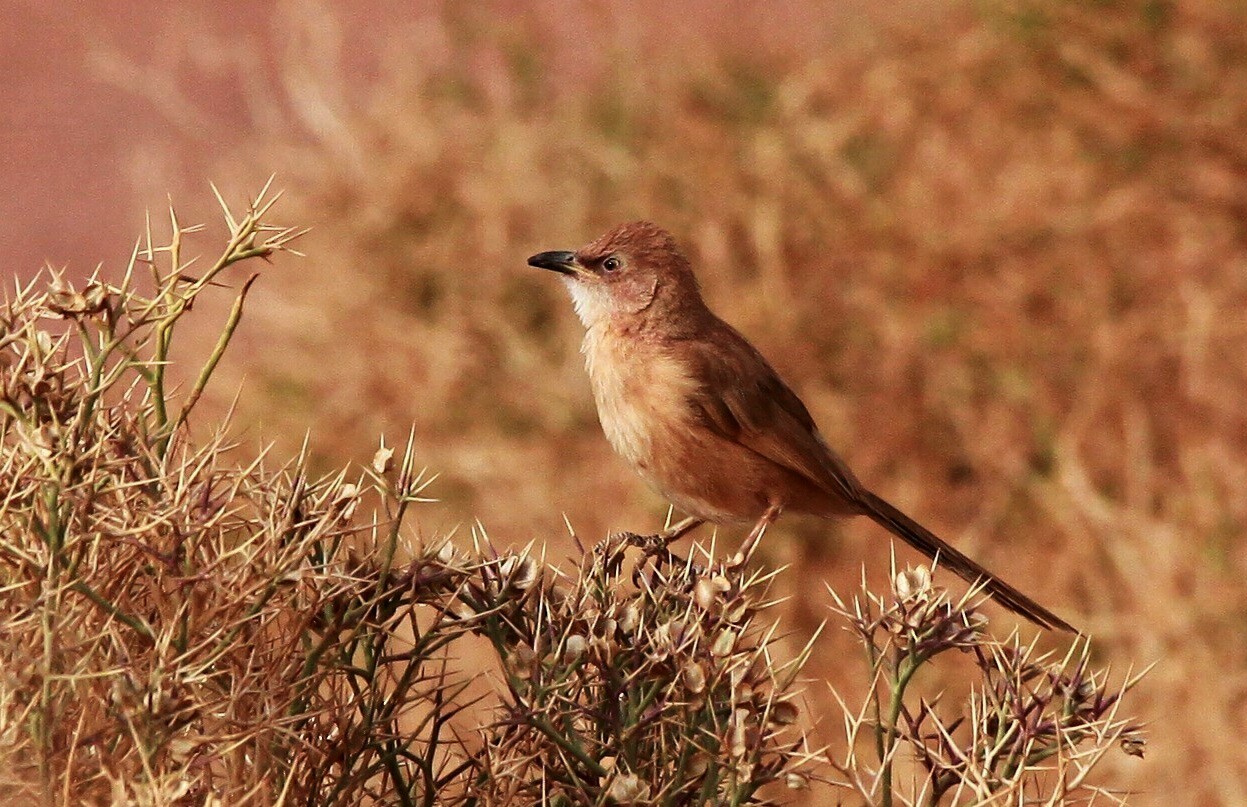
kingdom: Animalia
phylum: Chordata
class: Aves
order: Passeriformes
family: Leiothrichidae
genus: Turdoides
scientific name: Turdoides fulva
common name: Fulvous babbler
